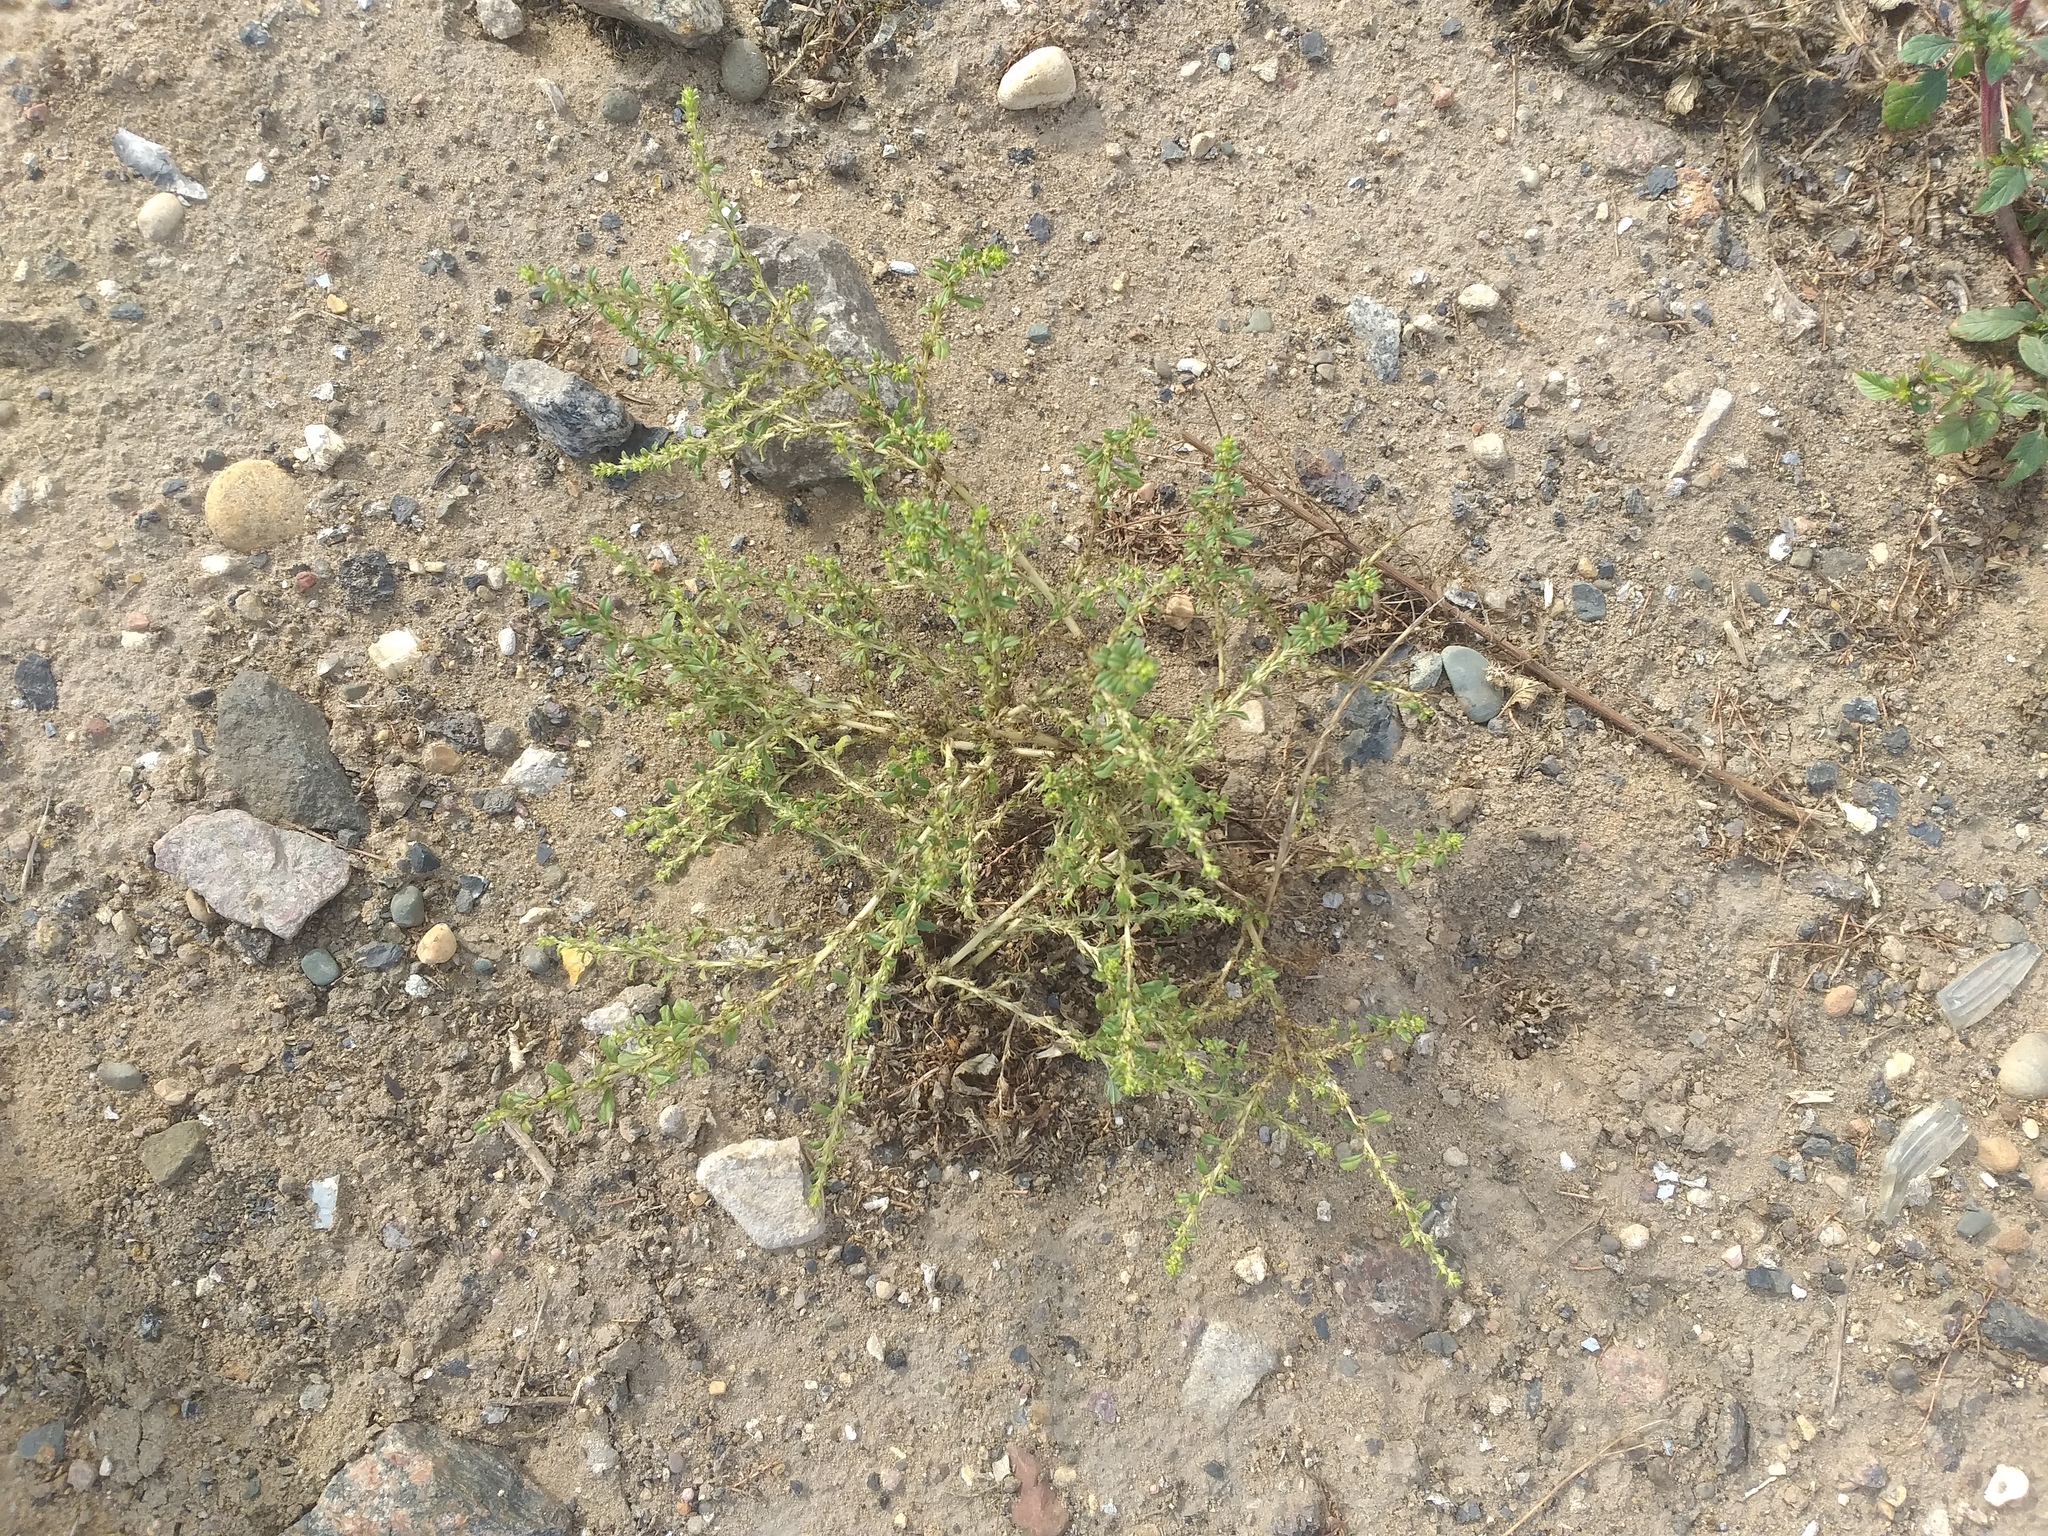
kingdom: Plantae
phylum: Tracheophyta
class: Magnoliopsida
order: Caryophyllales
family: Amaranthaceae
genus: Amaranthus
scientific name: Amaranthus albus
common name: White pigweed
